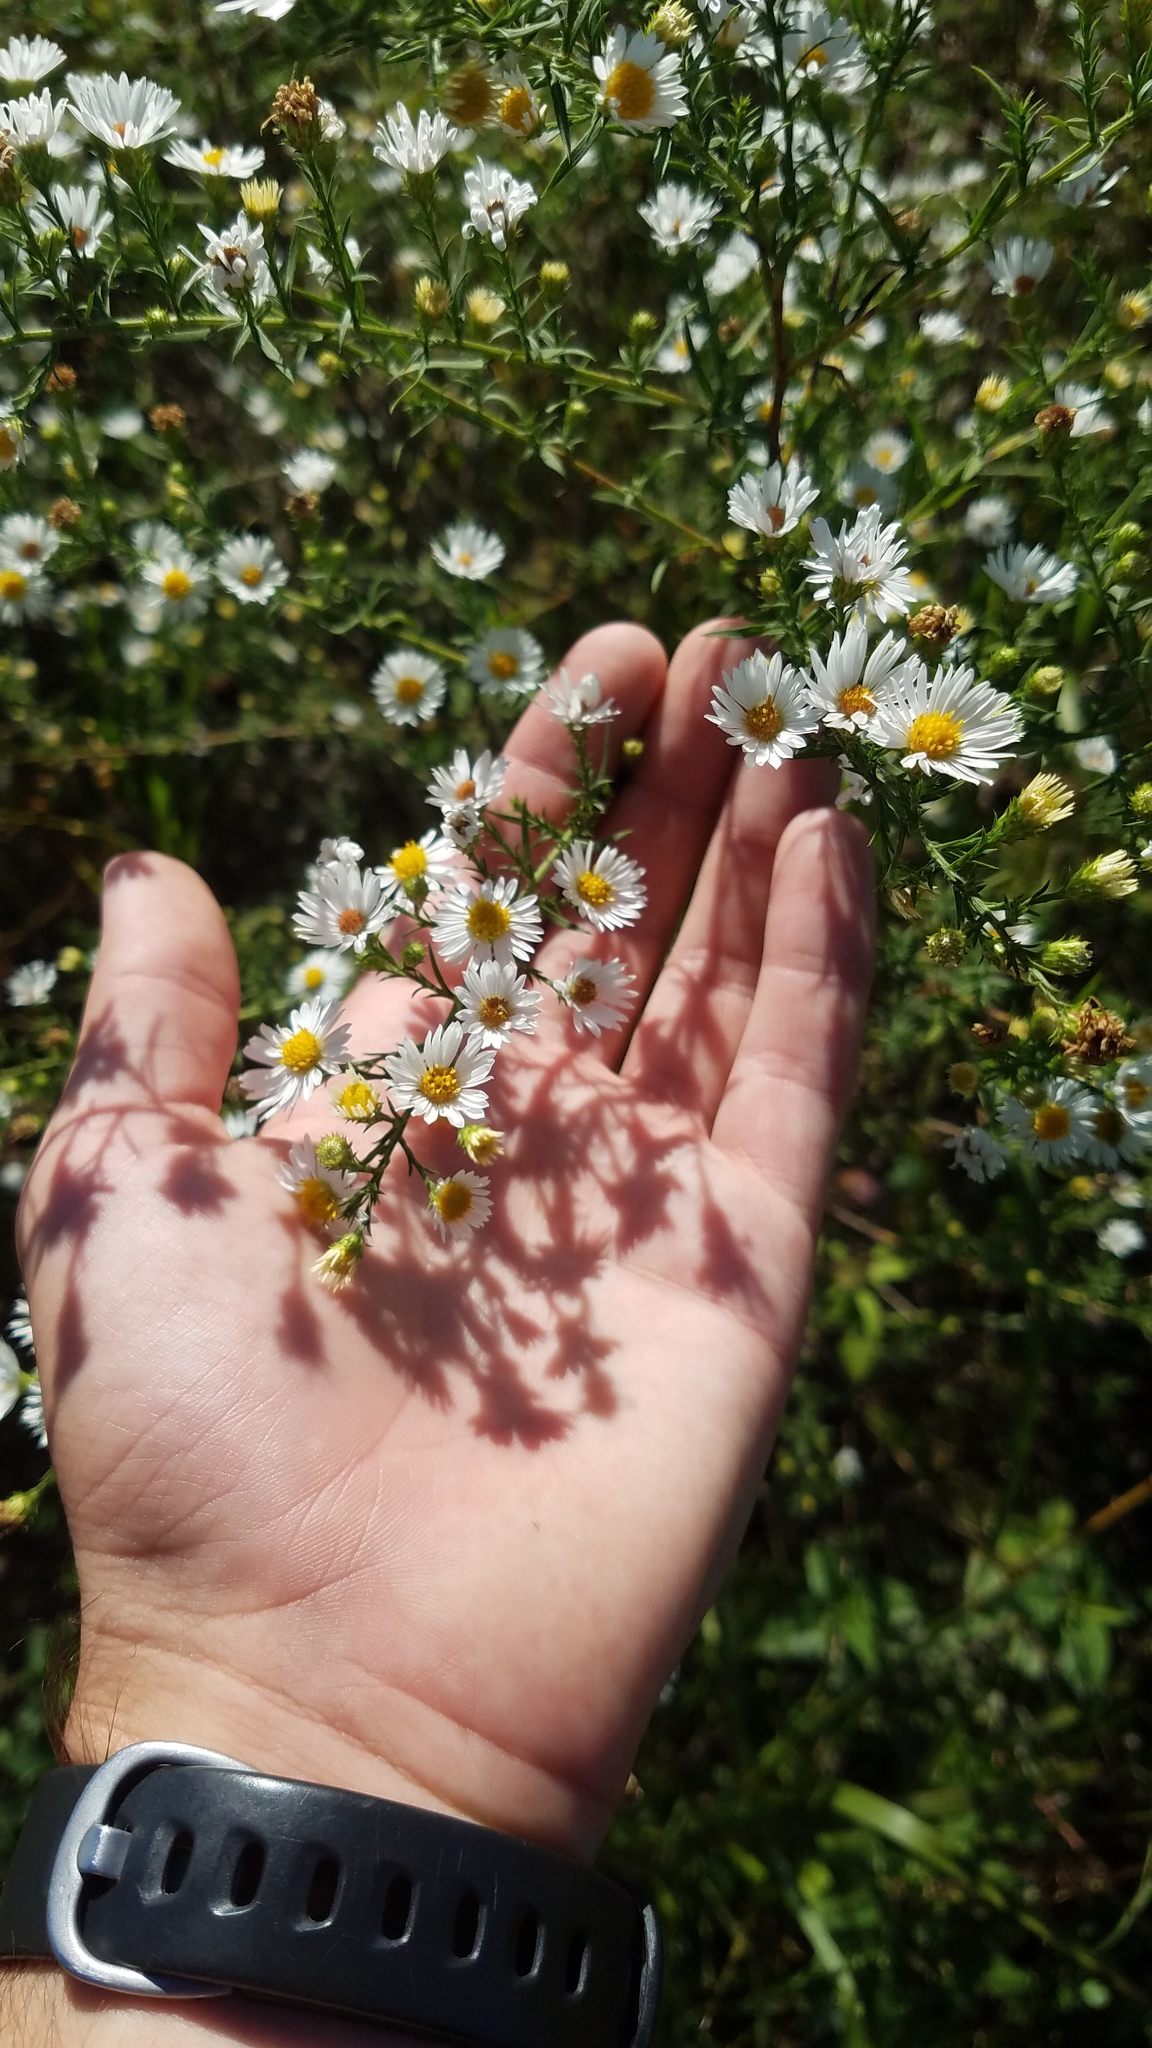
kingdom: Plantae
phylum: Tracheophyta
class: Magnoliopsida
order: Asterales
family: Asteraceae
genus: Symphyotrichum
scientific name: Symphyotrichum pilosum
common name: Awl aster
